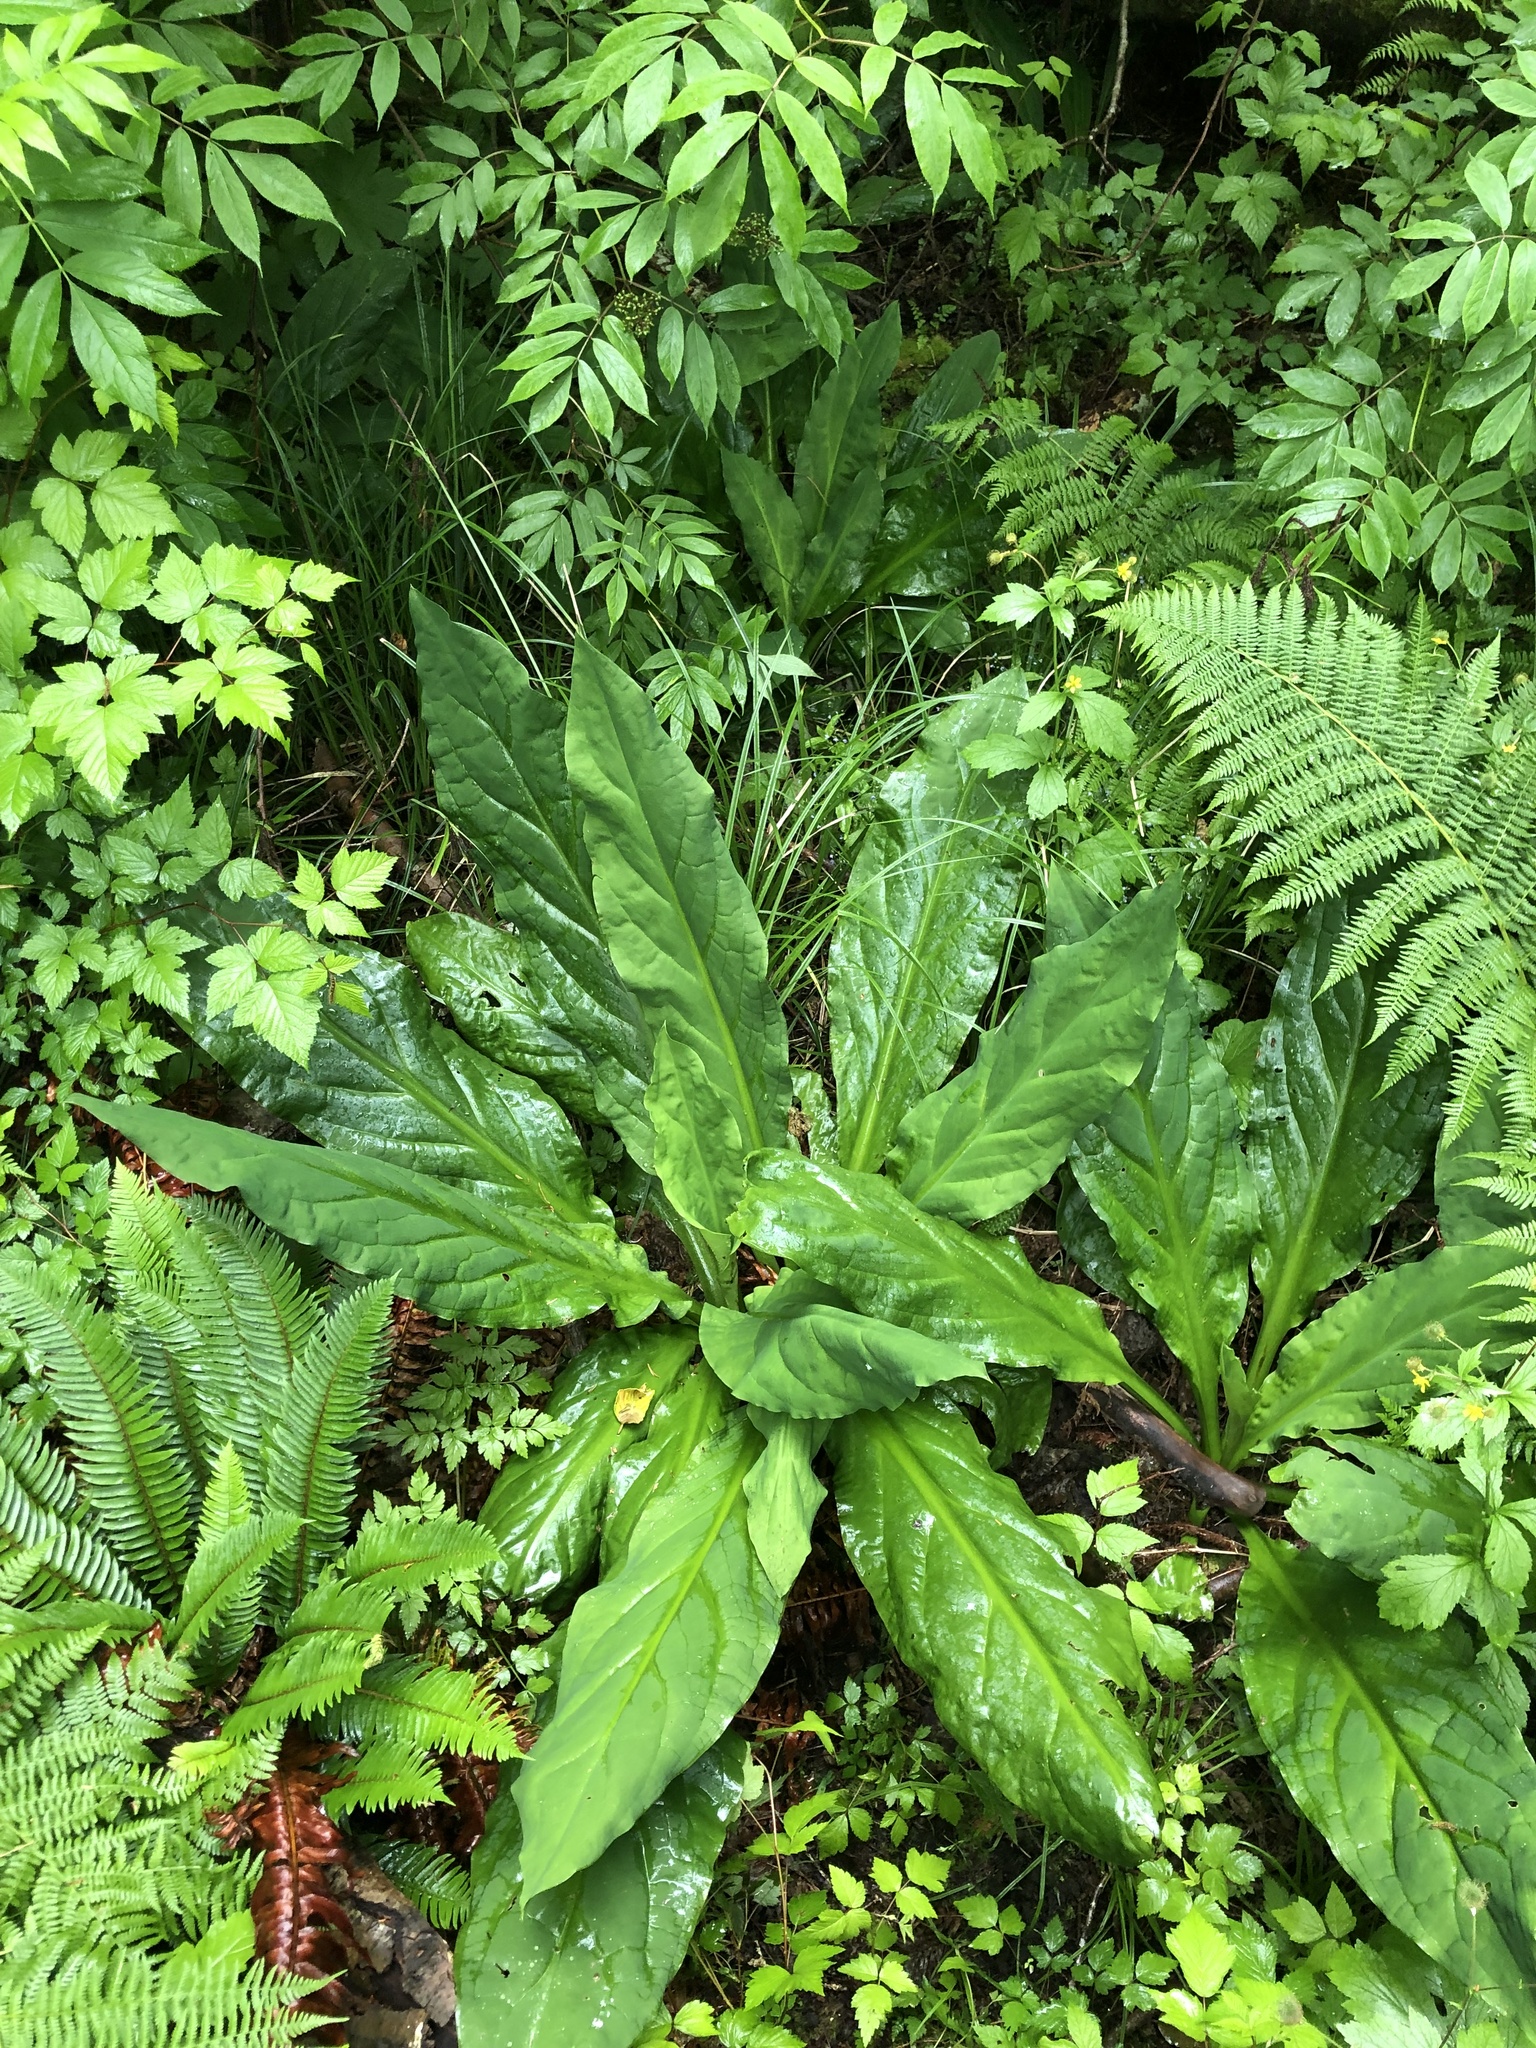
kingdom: Plantae
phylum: Tracheophyta
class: Liliopsida
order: Alismatales
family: Araceae
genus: Lysichiton
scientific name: Lysichiton americanus
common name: American skunk cabbage
